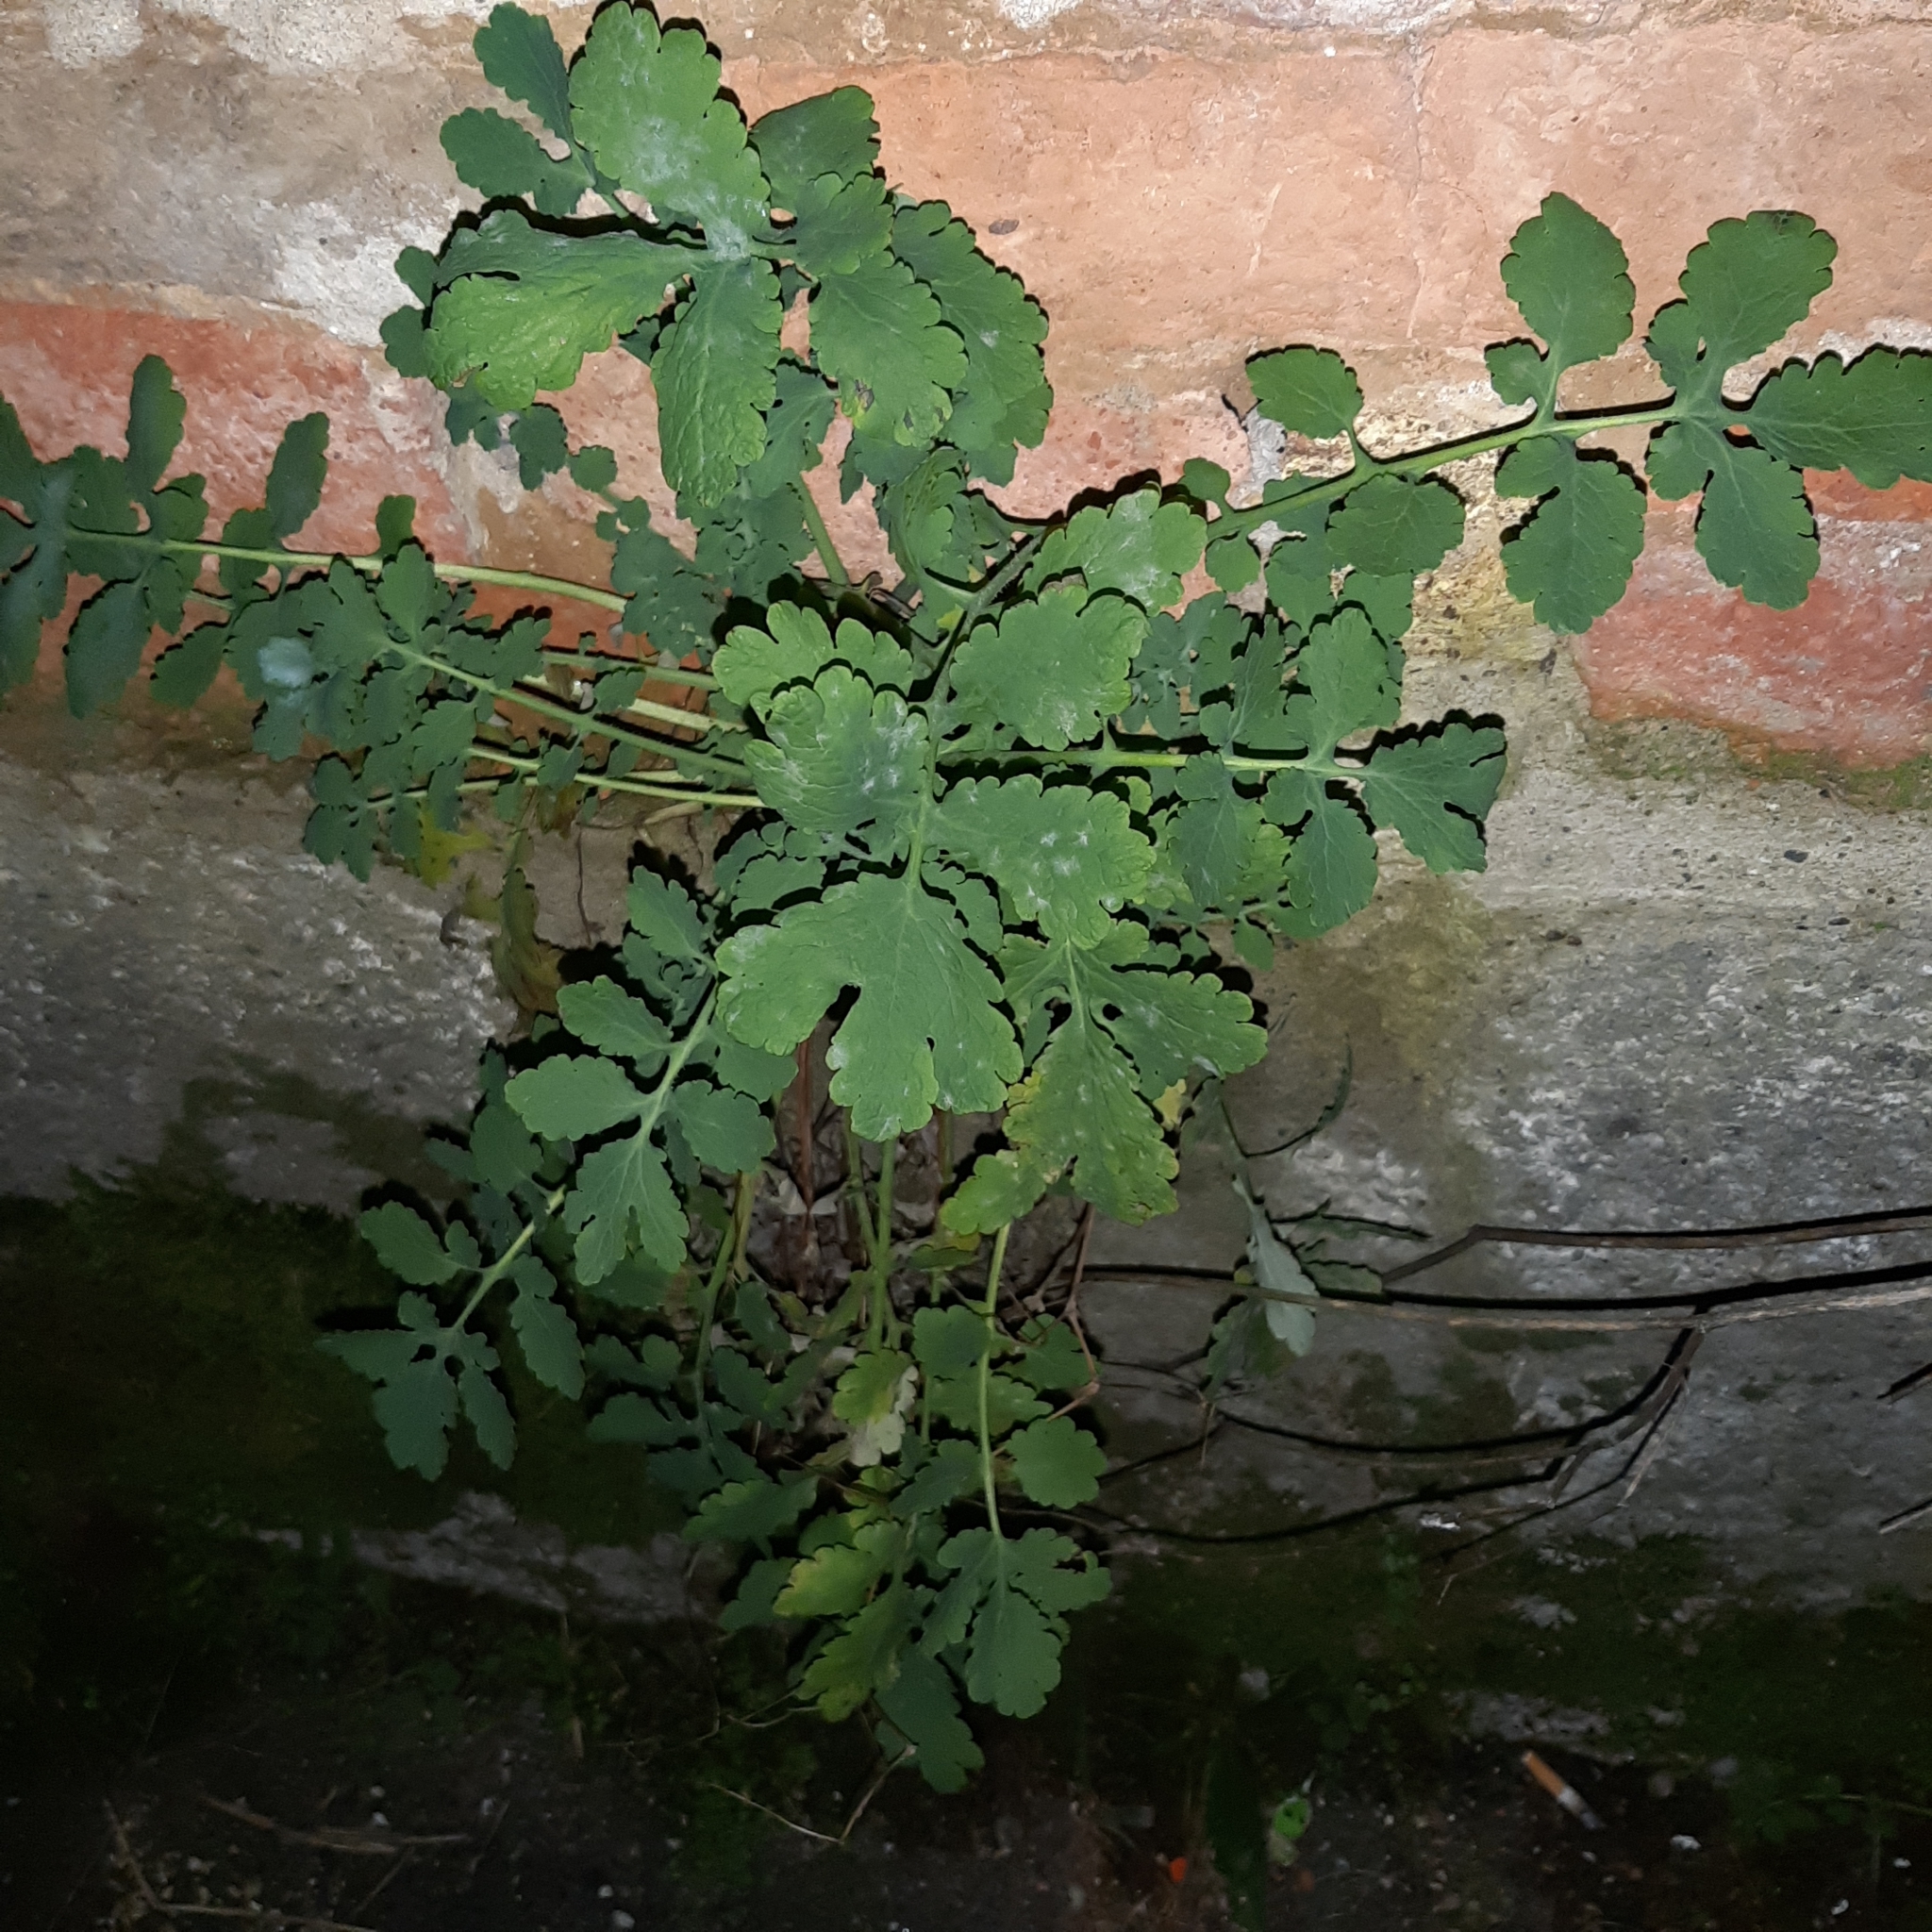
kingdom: Plantae
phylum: Tracheophyta
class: Magnoliopsida
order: Ranunculales
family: Papaveraceae
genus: Chelidonium
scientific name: Chelidonium majus
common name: Greater celandine
